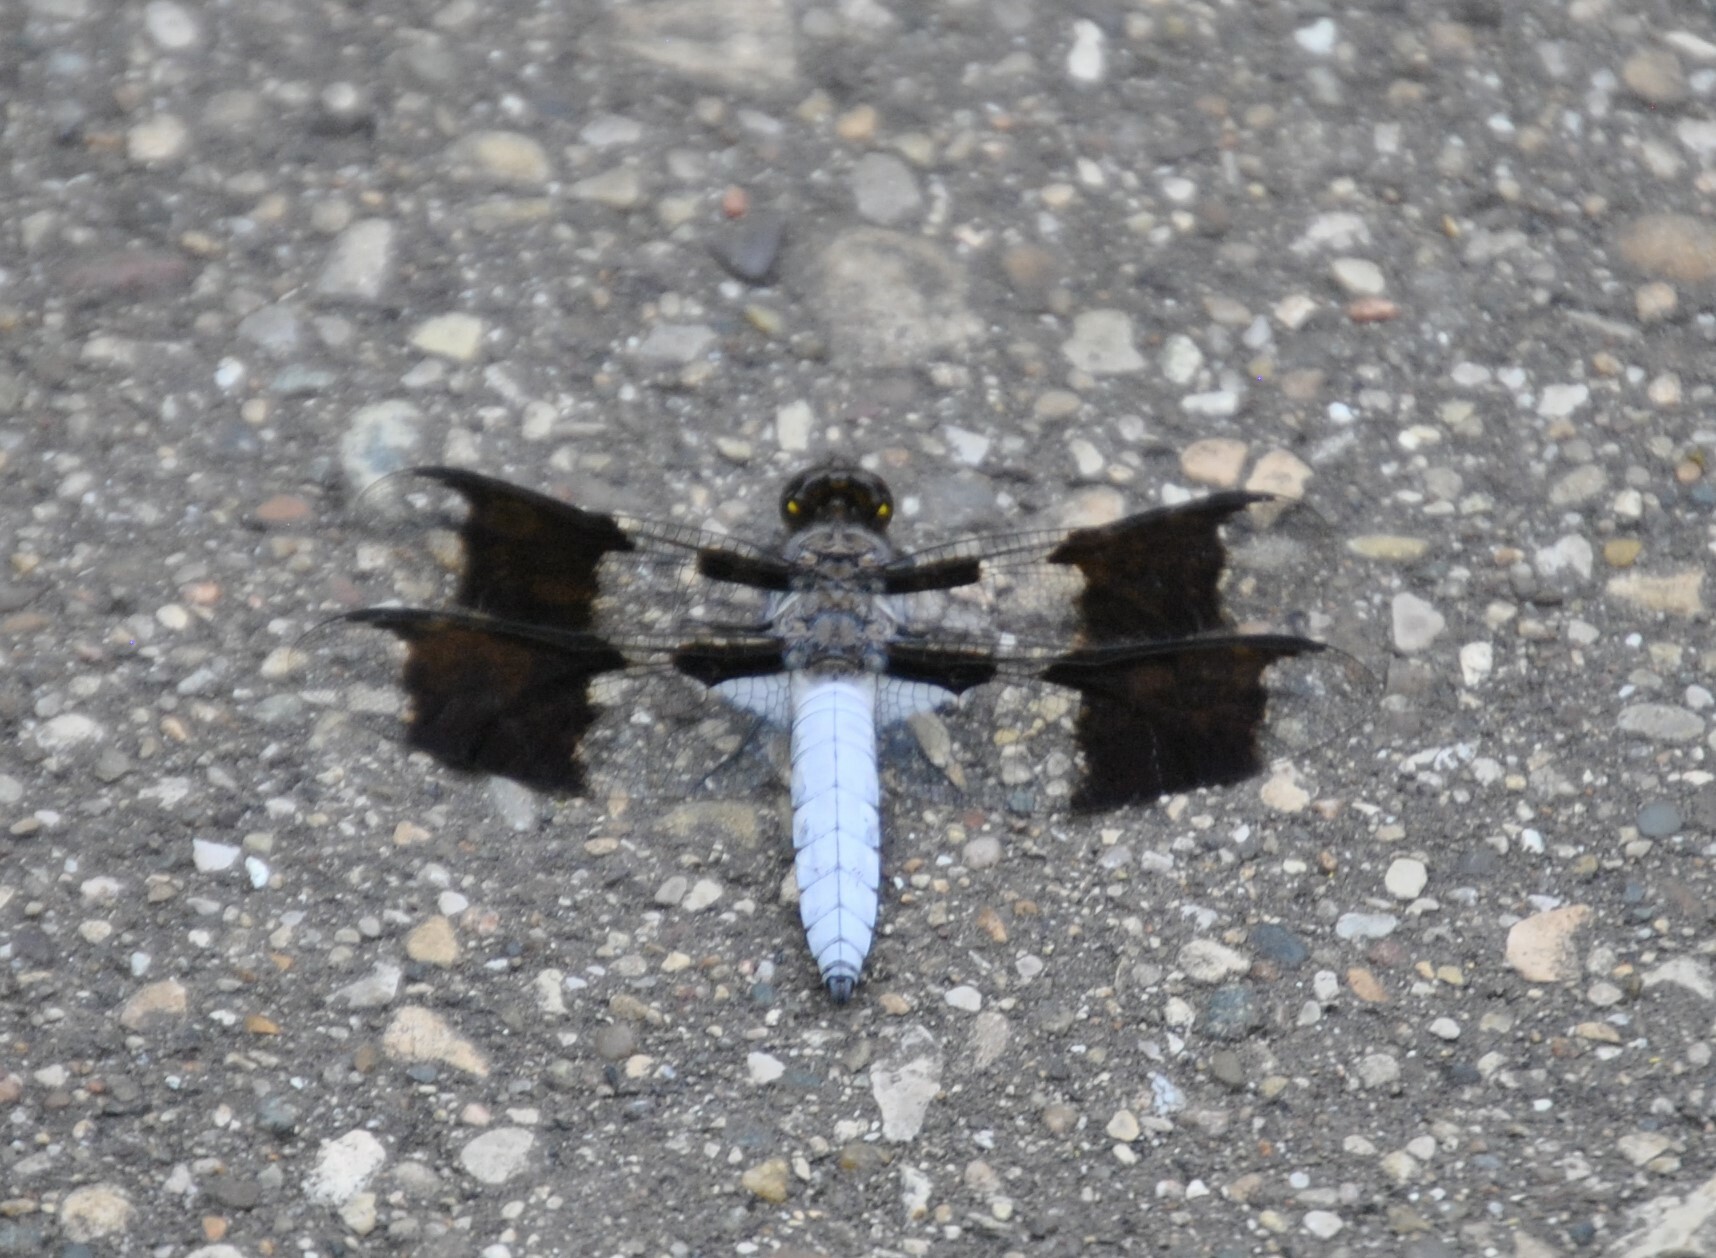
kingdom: Animalia
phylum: Arthropoda
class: Insecta
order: Odonata
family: Libellulidae
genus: Plathemis
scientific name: Plathemis lydia
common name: Common whitetail
